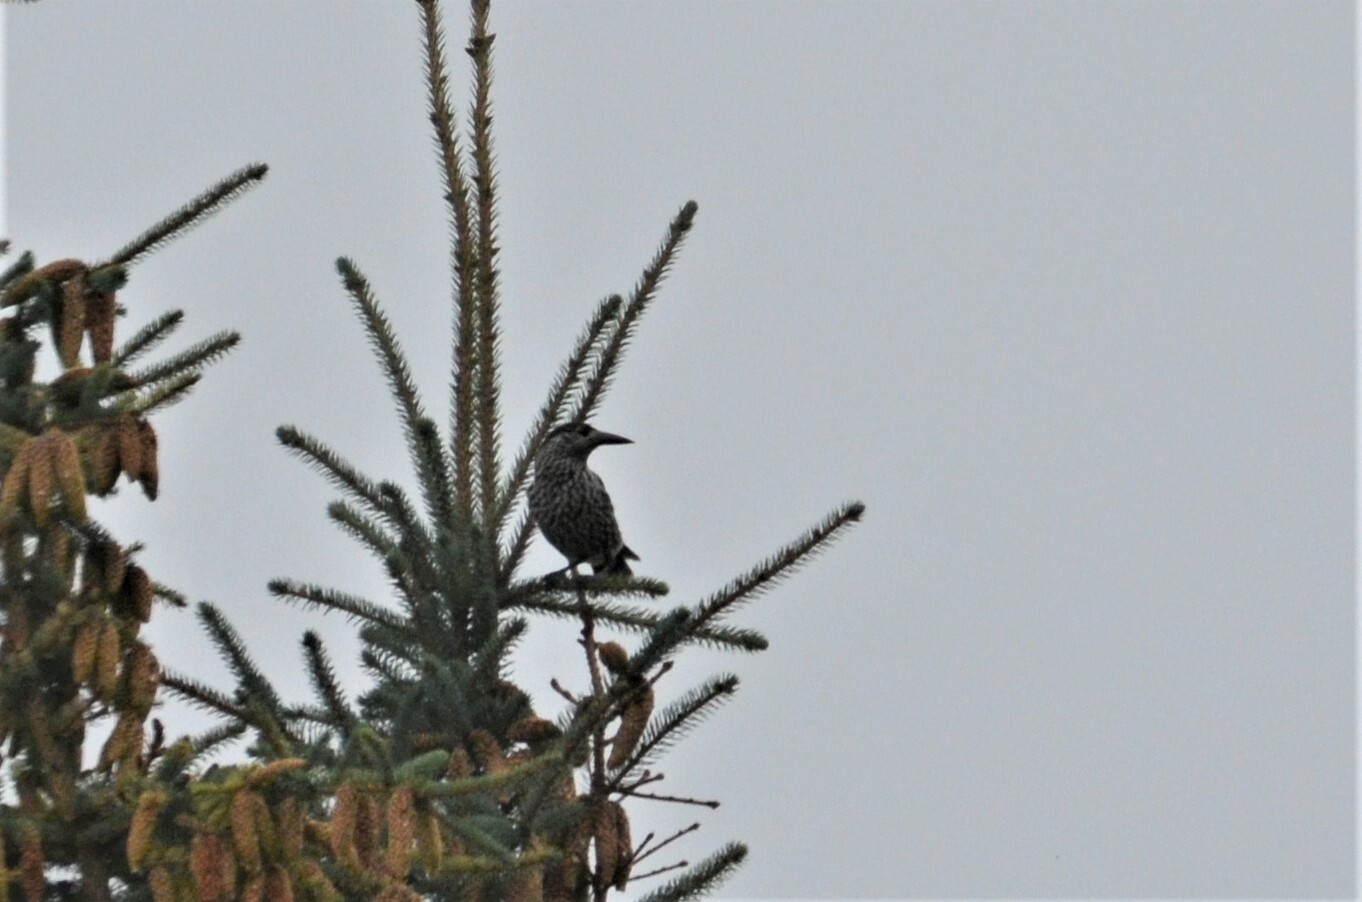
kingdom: Animalia
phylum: Chordata
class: Aves
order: Passeriformes
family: Corvidae
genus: Nucifraga
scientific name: Nucifraga caryocatactes
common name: Spotted nutcracker
